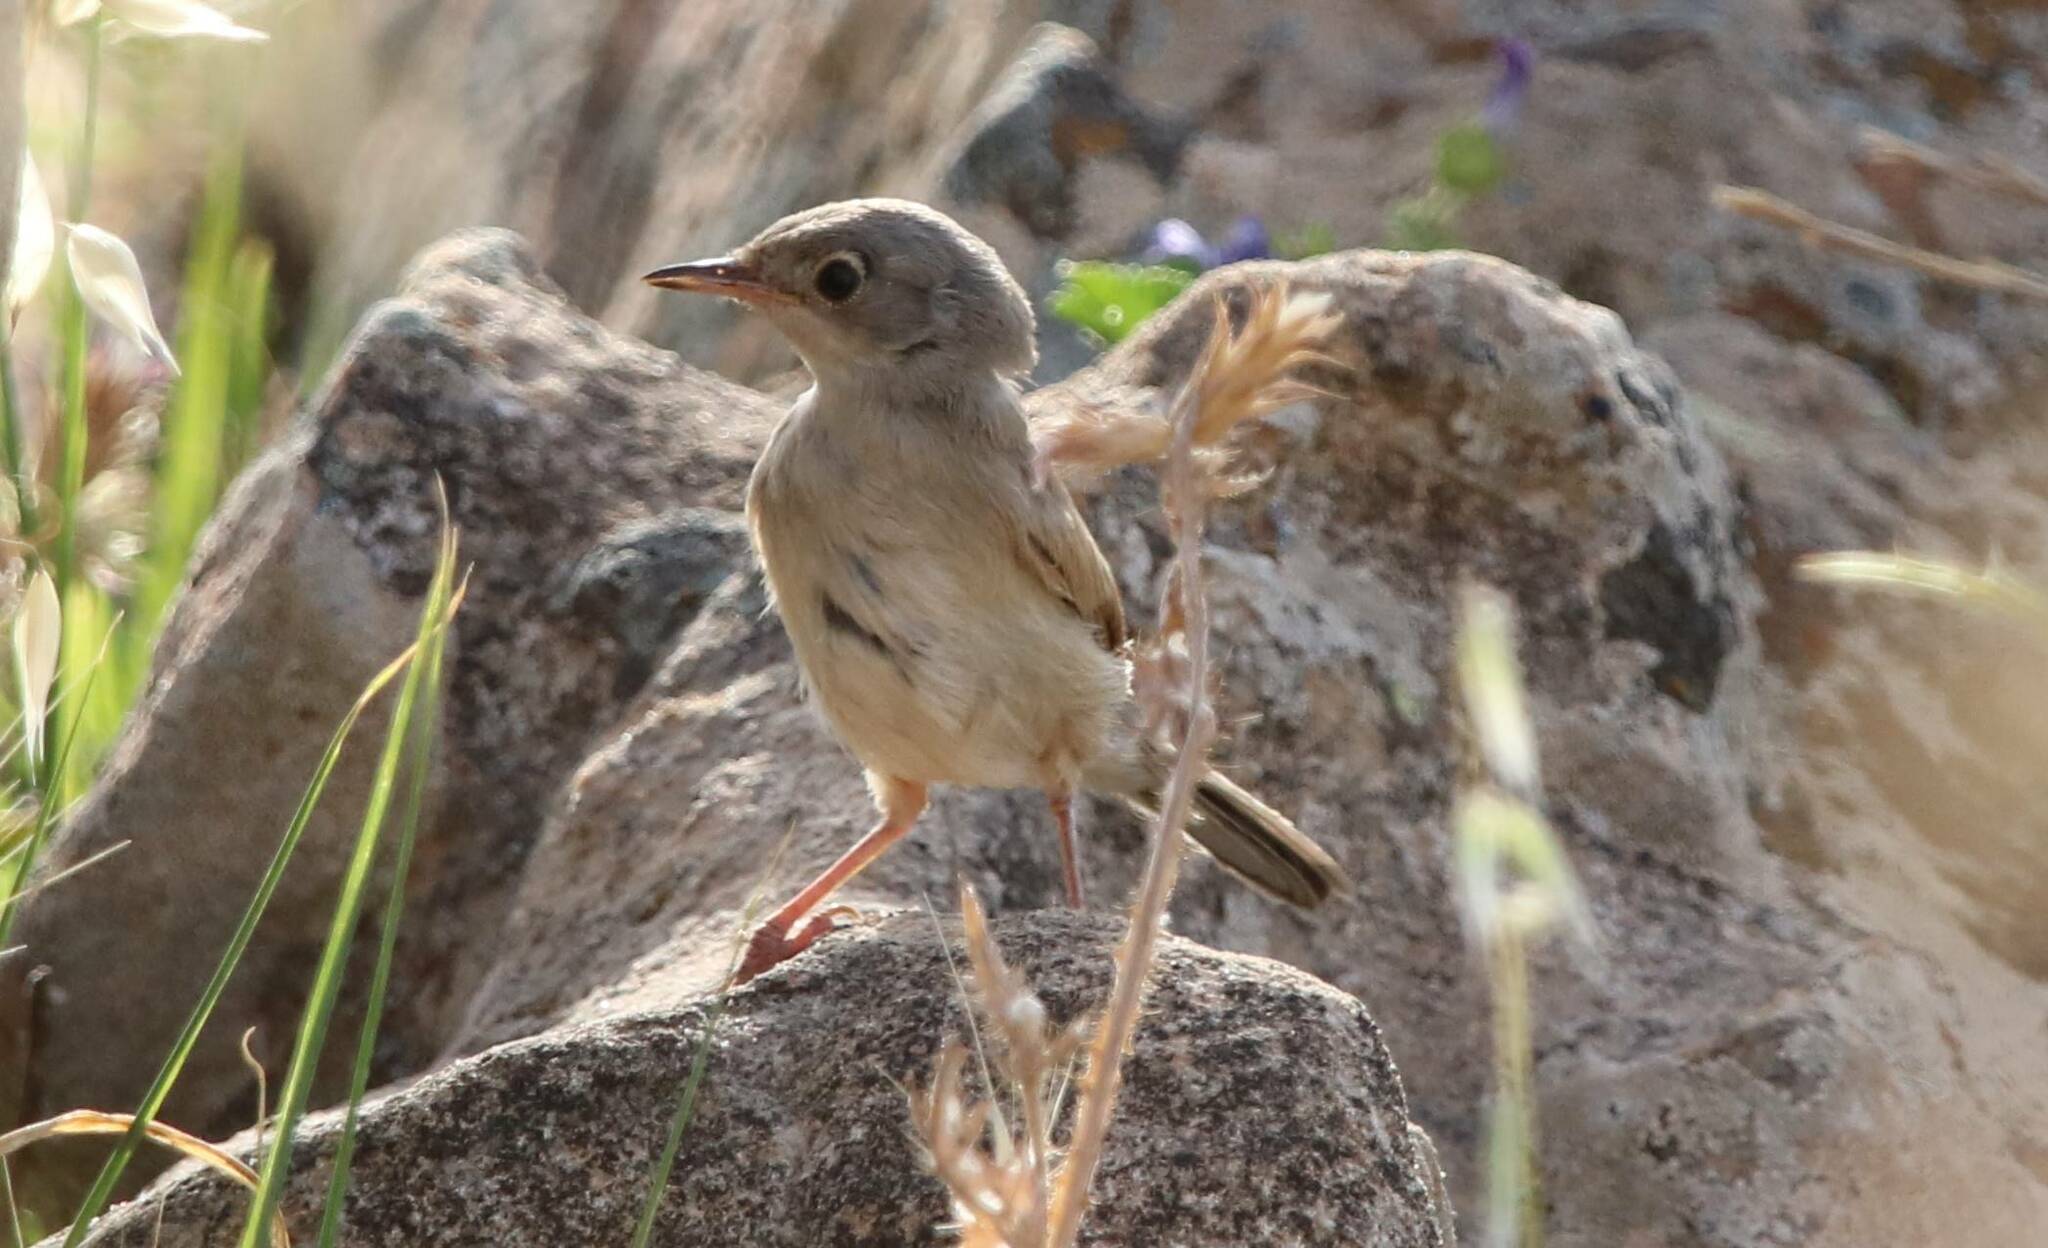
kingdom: Animalia
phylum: Chordata
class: Aves
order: Passeriformes
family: Sylviidae
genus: Sylvia
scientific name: Sylvia communis
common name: Common whitethroat
